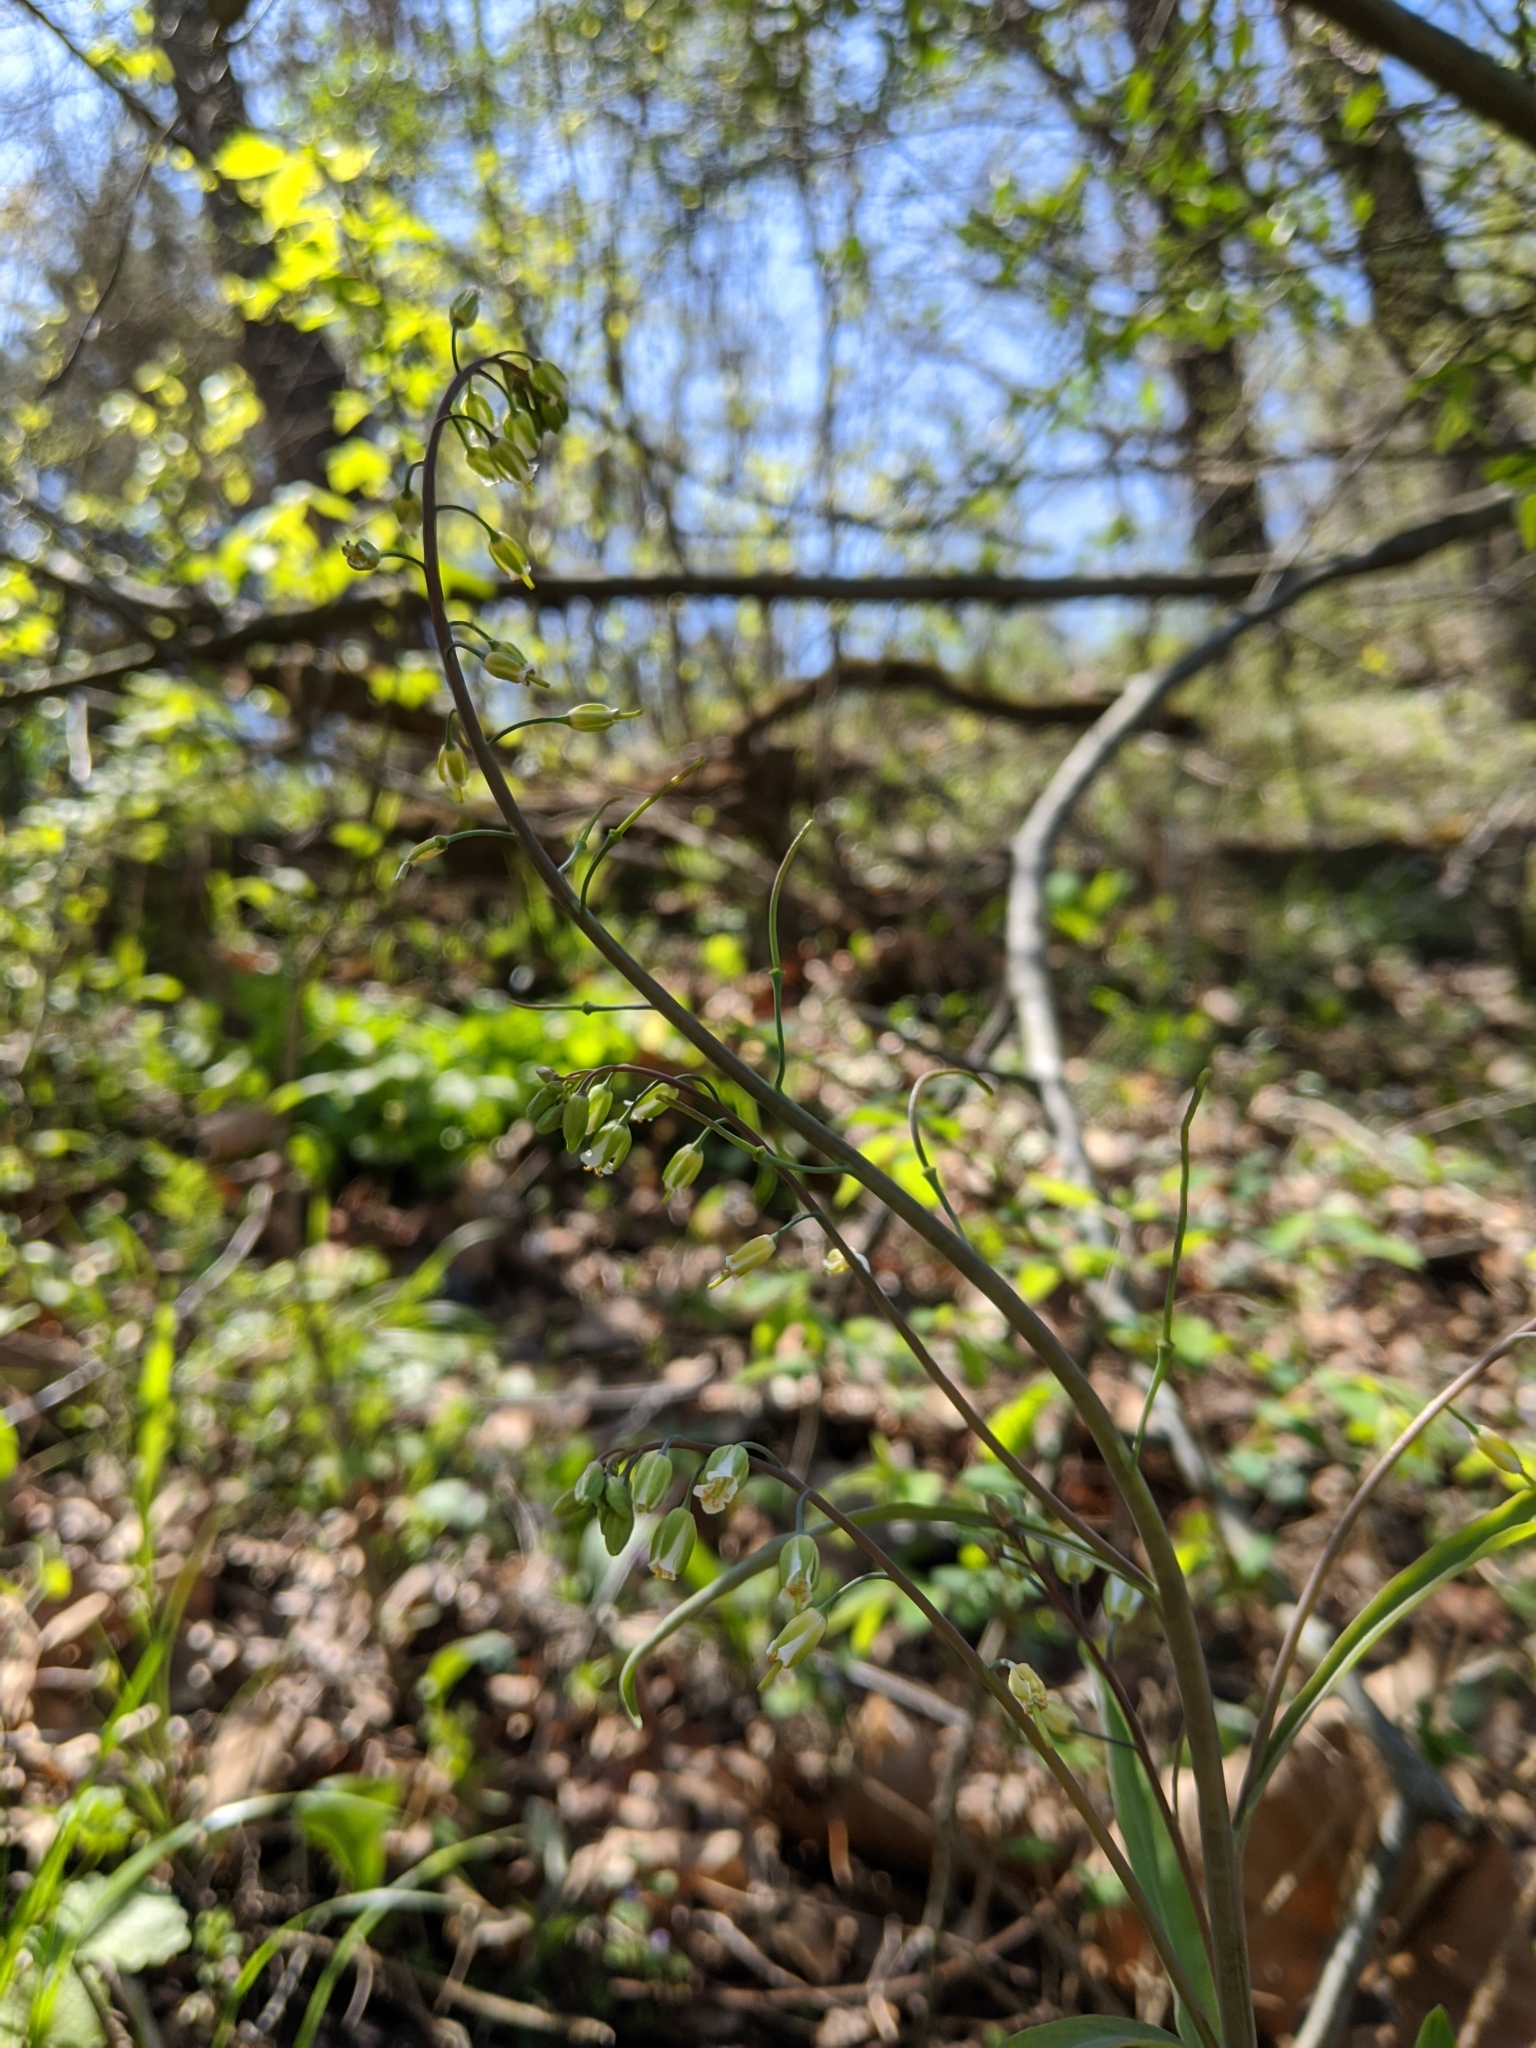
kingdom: Plantae
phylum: Tracheophyta
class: Magnoliopsida
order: Brassicales
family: Brassicaceae
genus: Borodinia
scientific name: Borodinia laevigata
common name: Smooth rockcress
